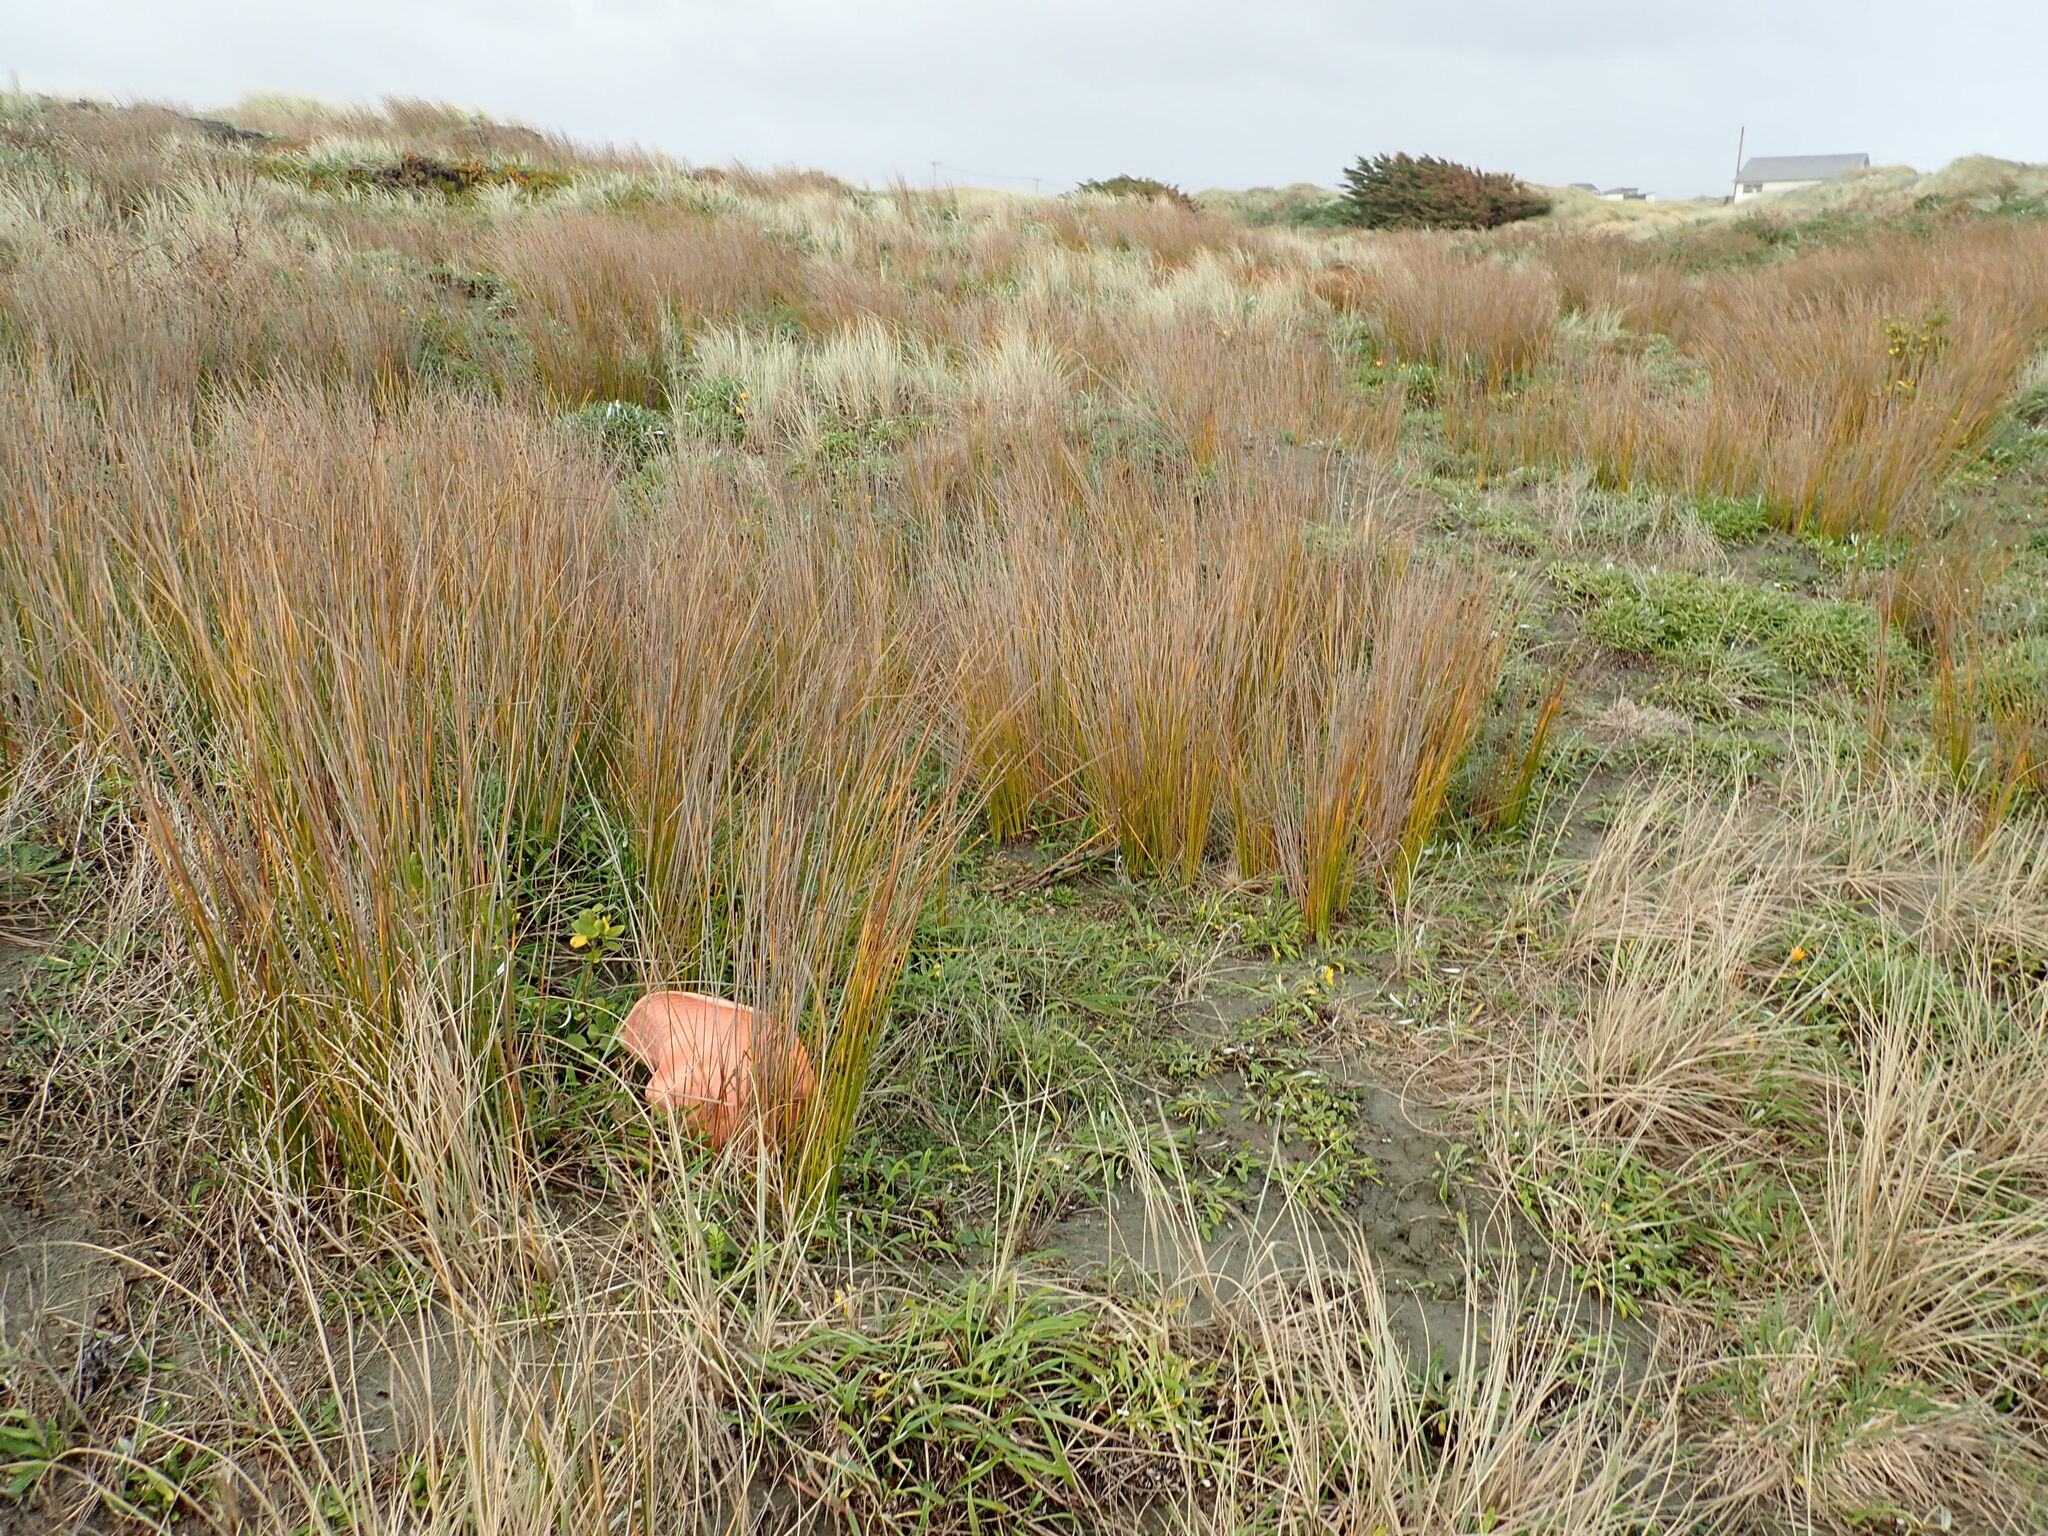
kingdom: Plantae
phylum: Tracheophyta
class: Magnoliopsida
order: Gentianales
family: Rubiaceae
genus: Coprosma
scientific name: Coprosma repens
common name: Tree bedstraw
